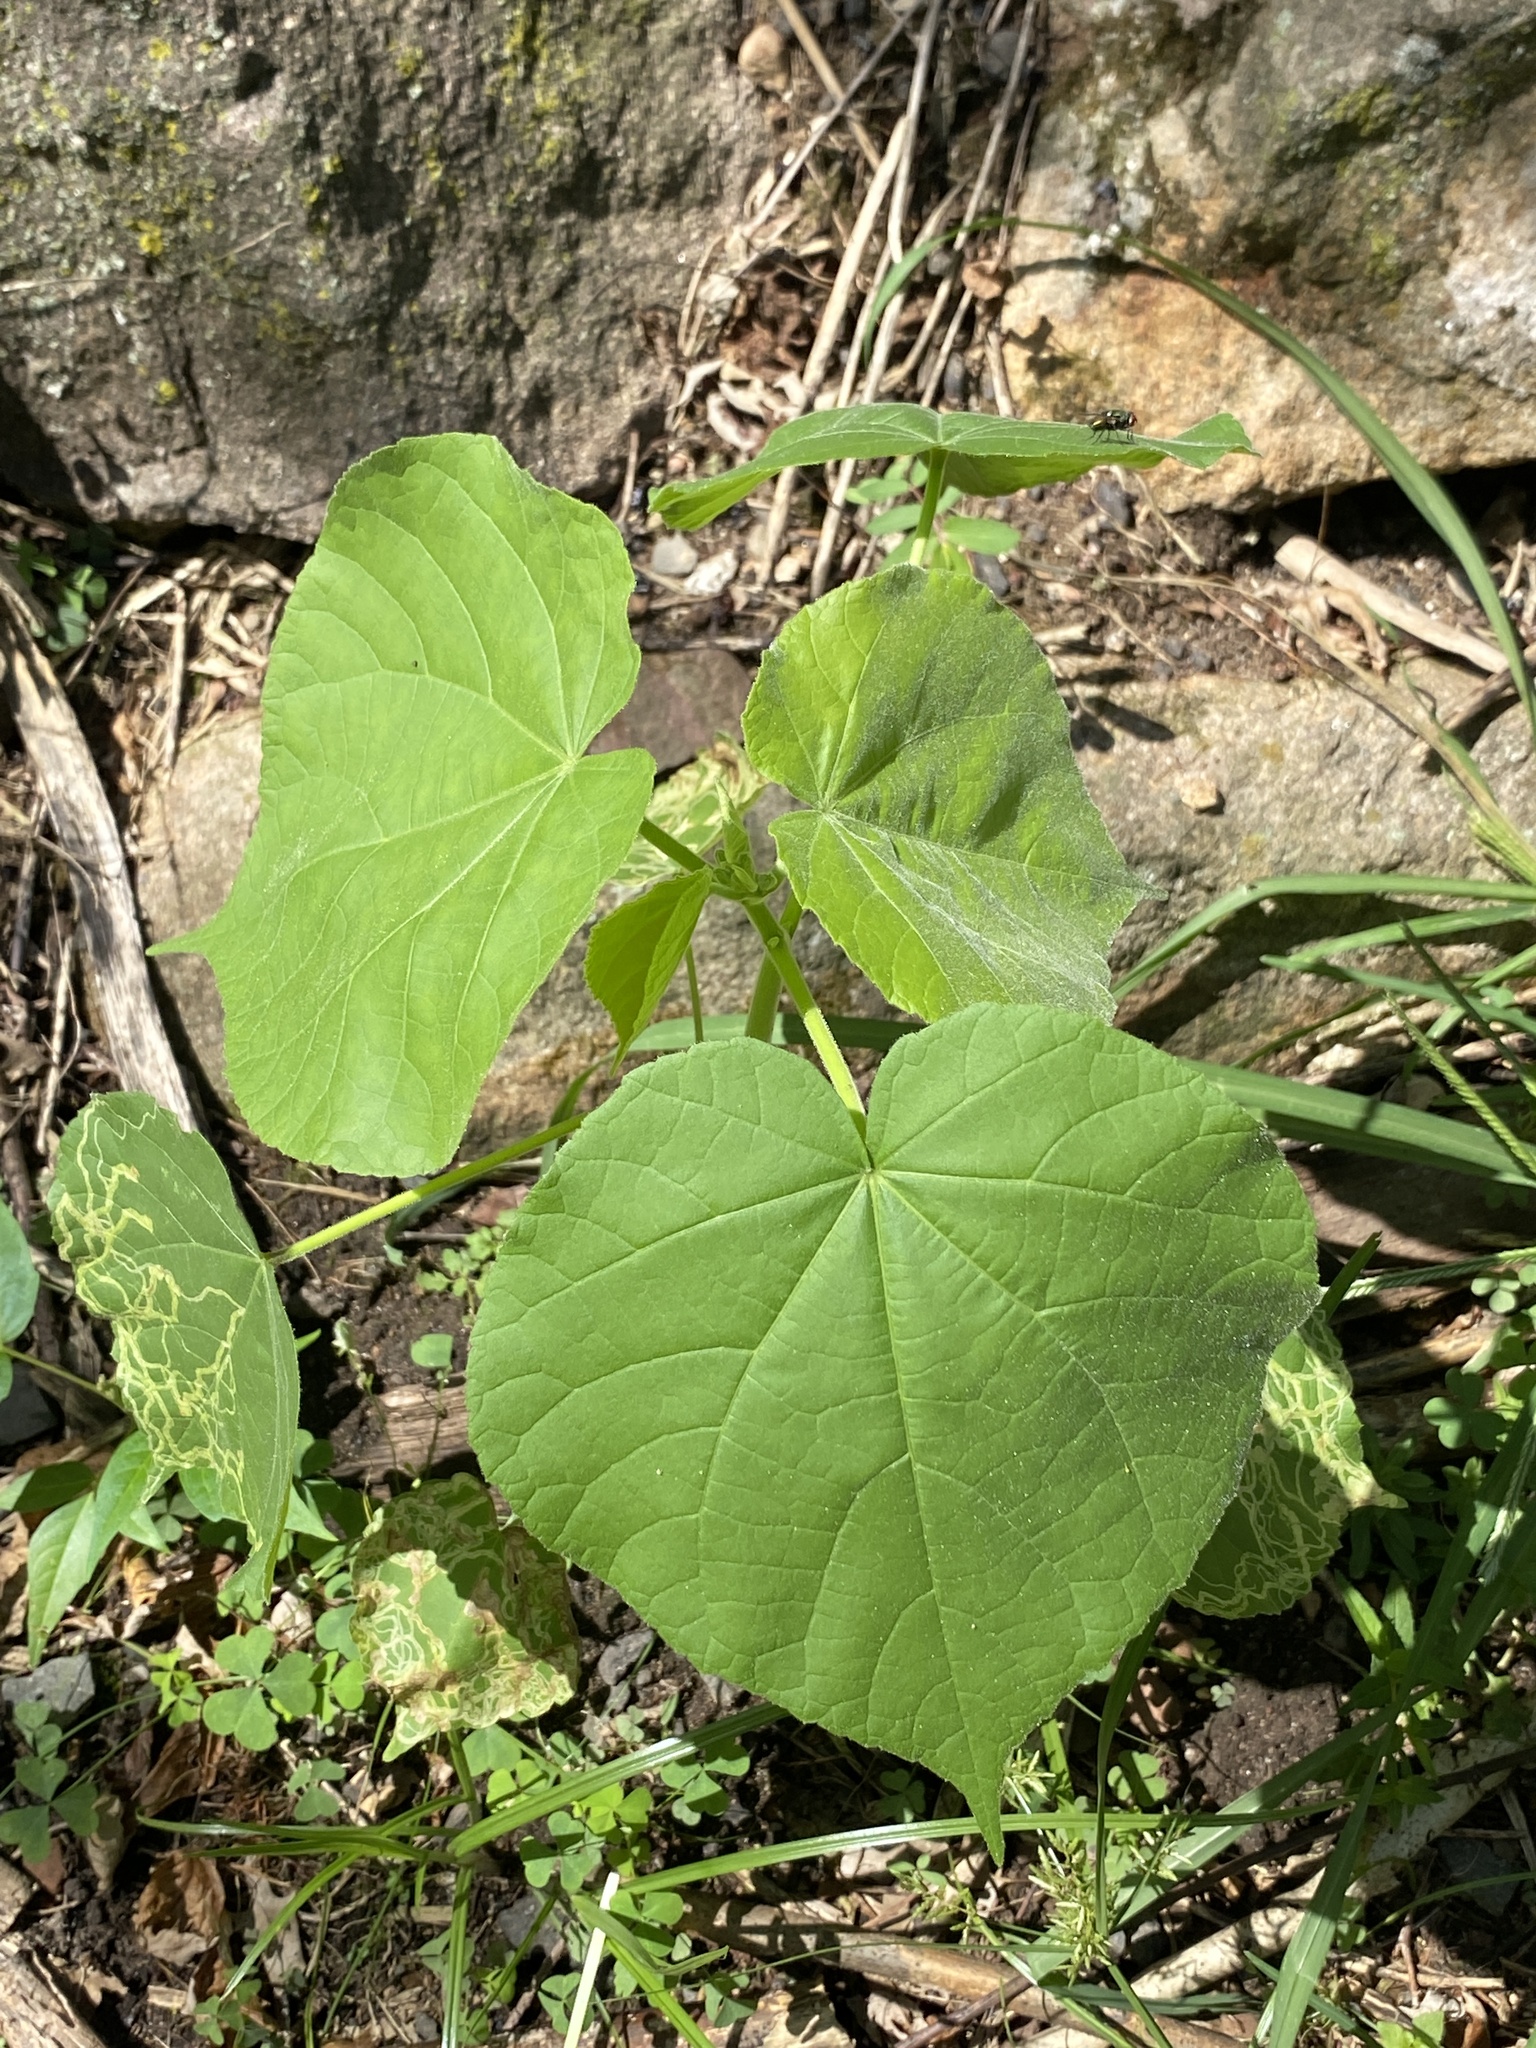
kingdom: Plantae
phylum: Tracheophyta
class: Magnoliopsida
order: Malvales
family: Malvaceae
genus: Abutilon
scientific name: Abutilon theophrasti
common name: Velvetleaf
